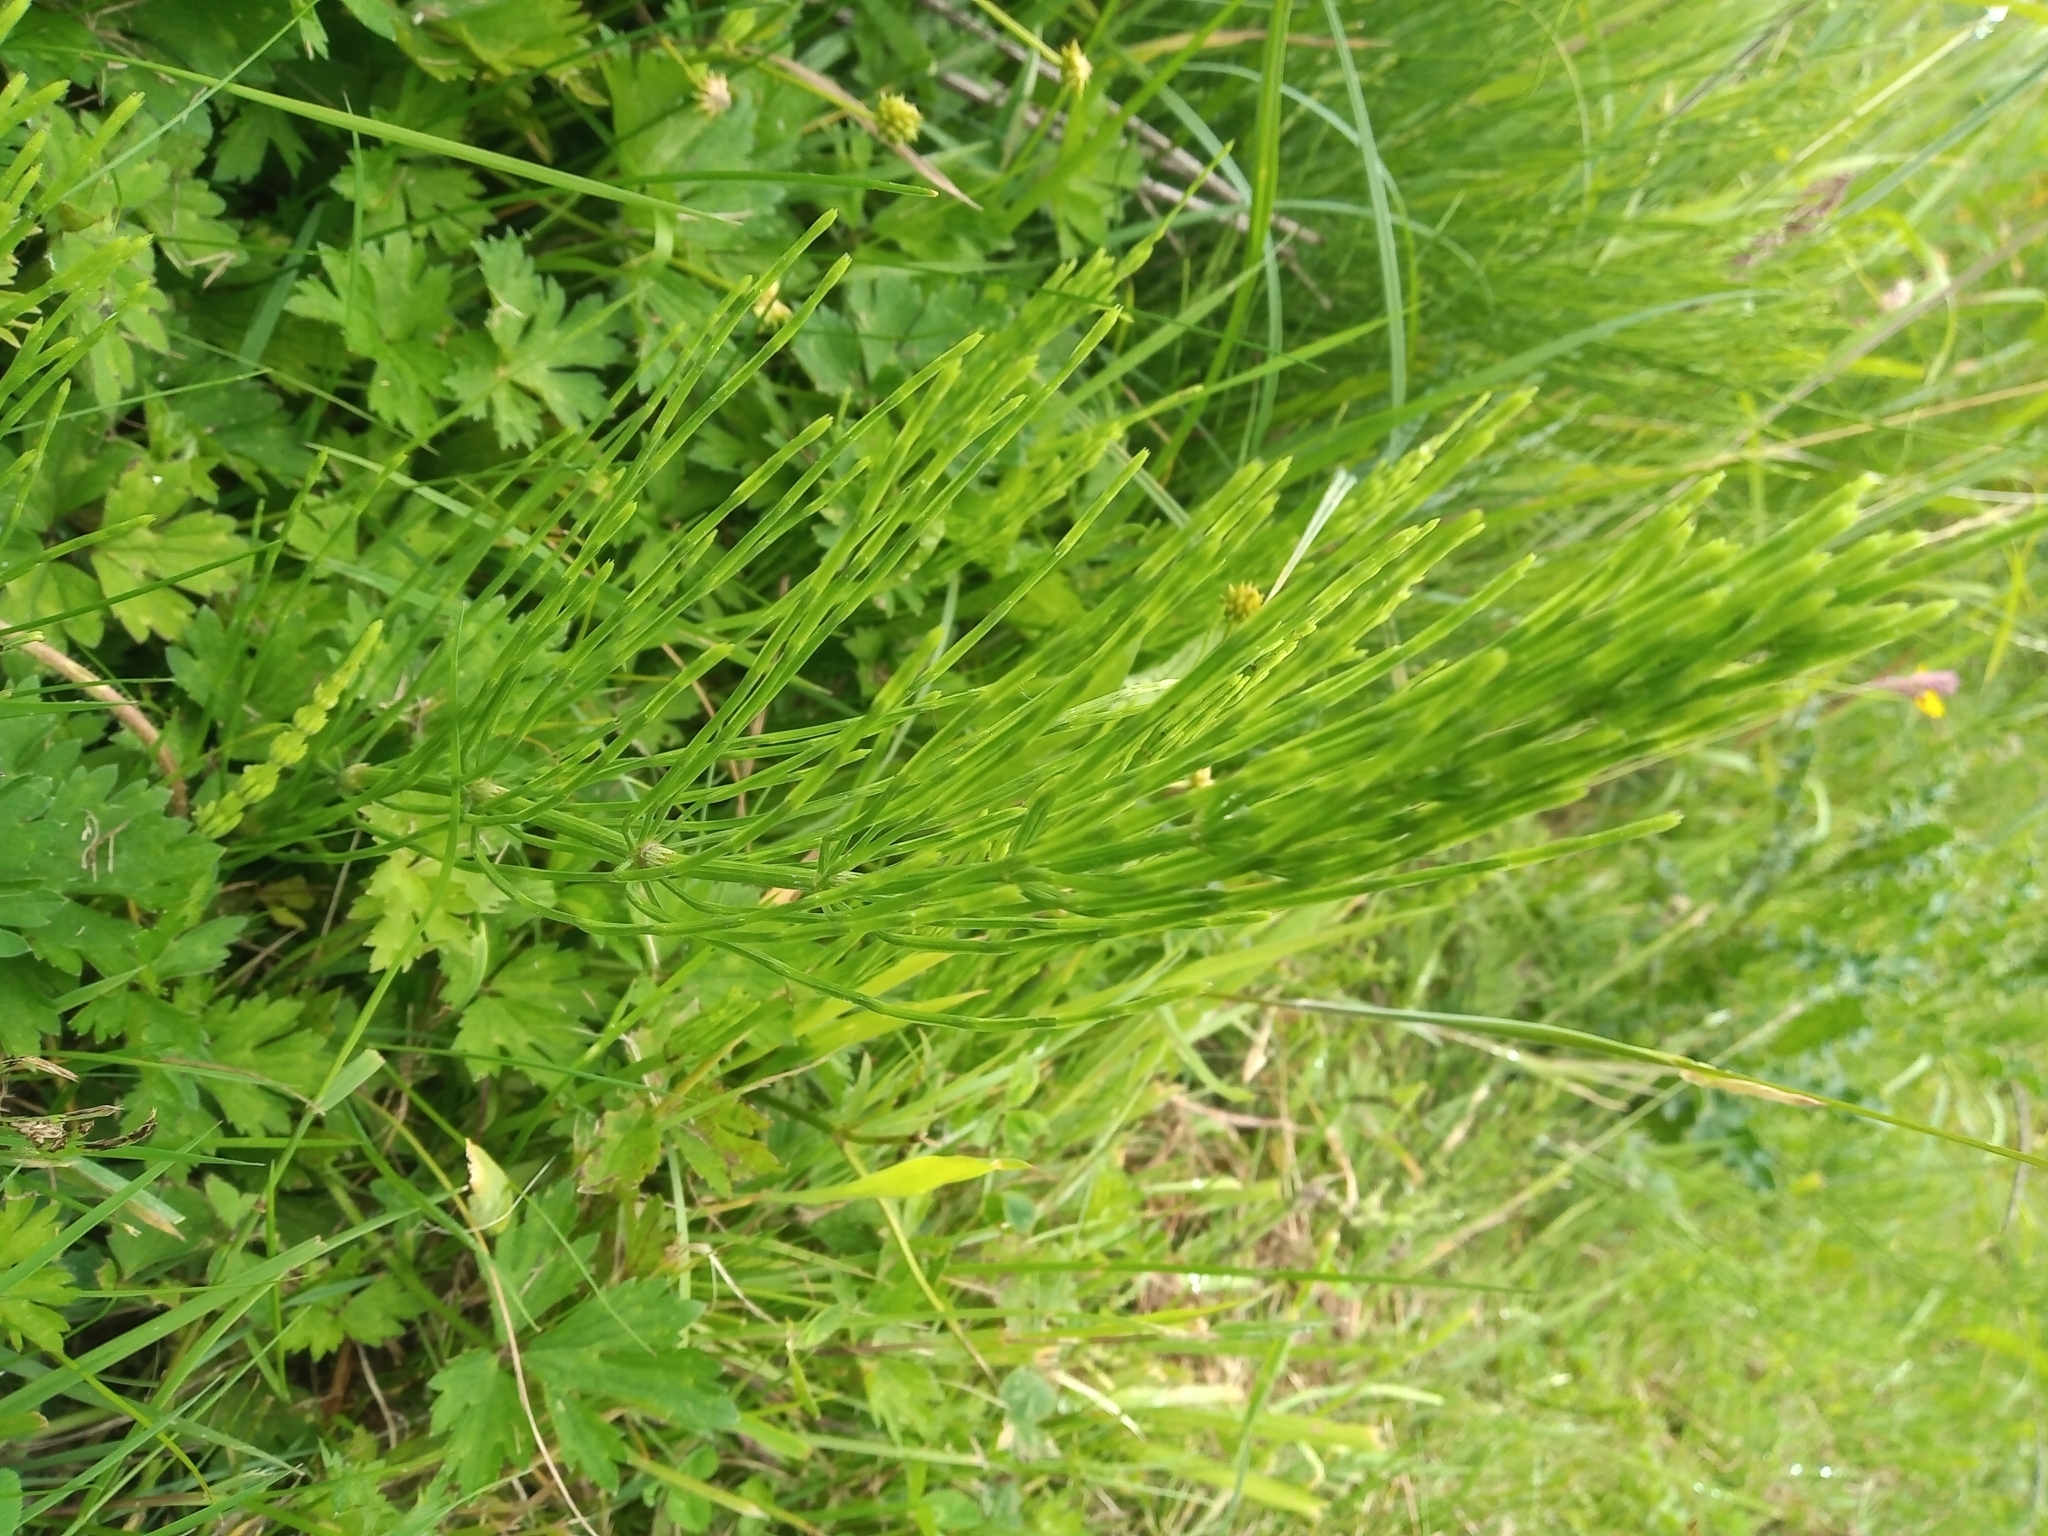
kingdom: Plantae
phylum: Tracheophyta
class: Polypodiopsida
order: Equisetales
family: Equisetaceae
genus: Equisetum
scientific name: Equisetum arvense
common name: Field horsetail
